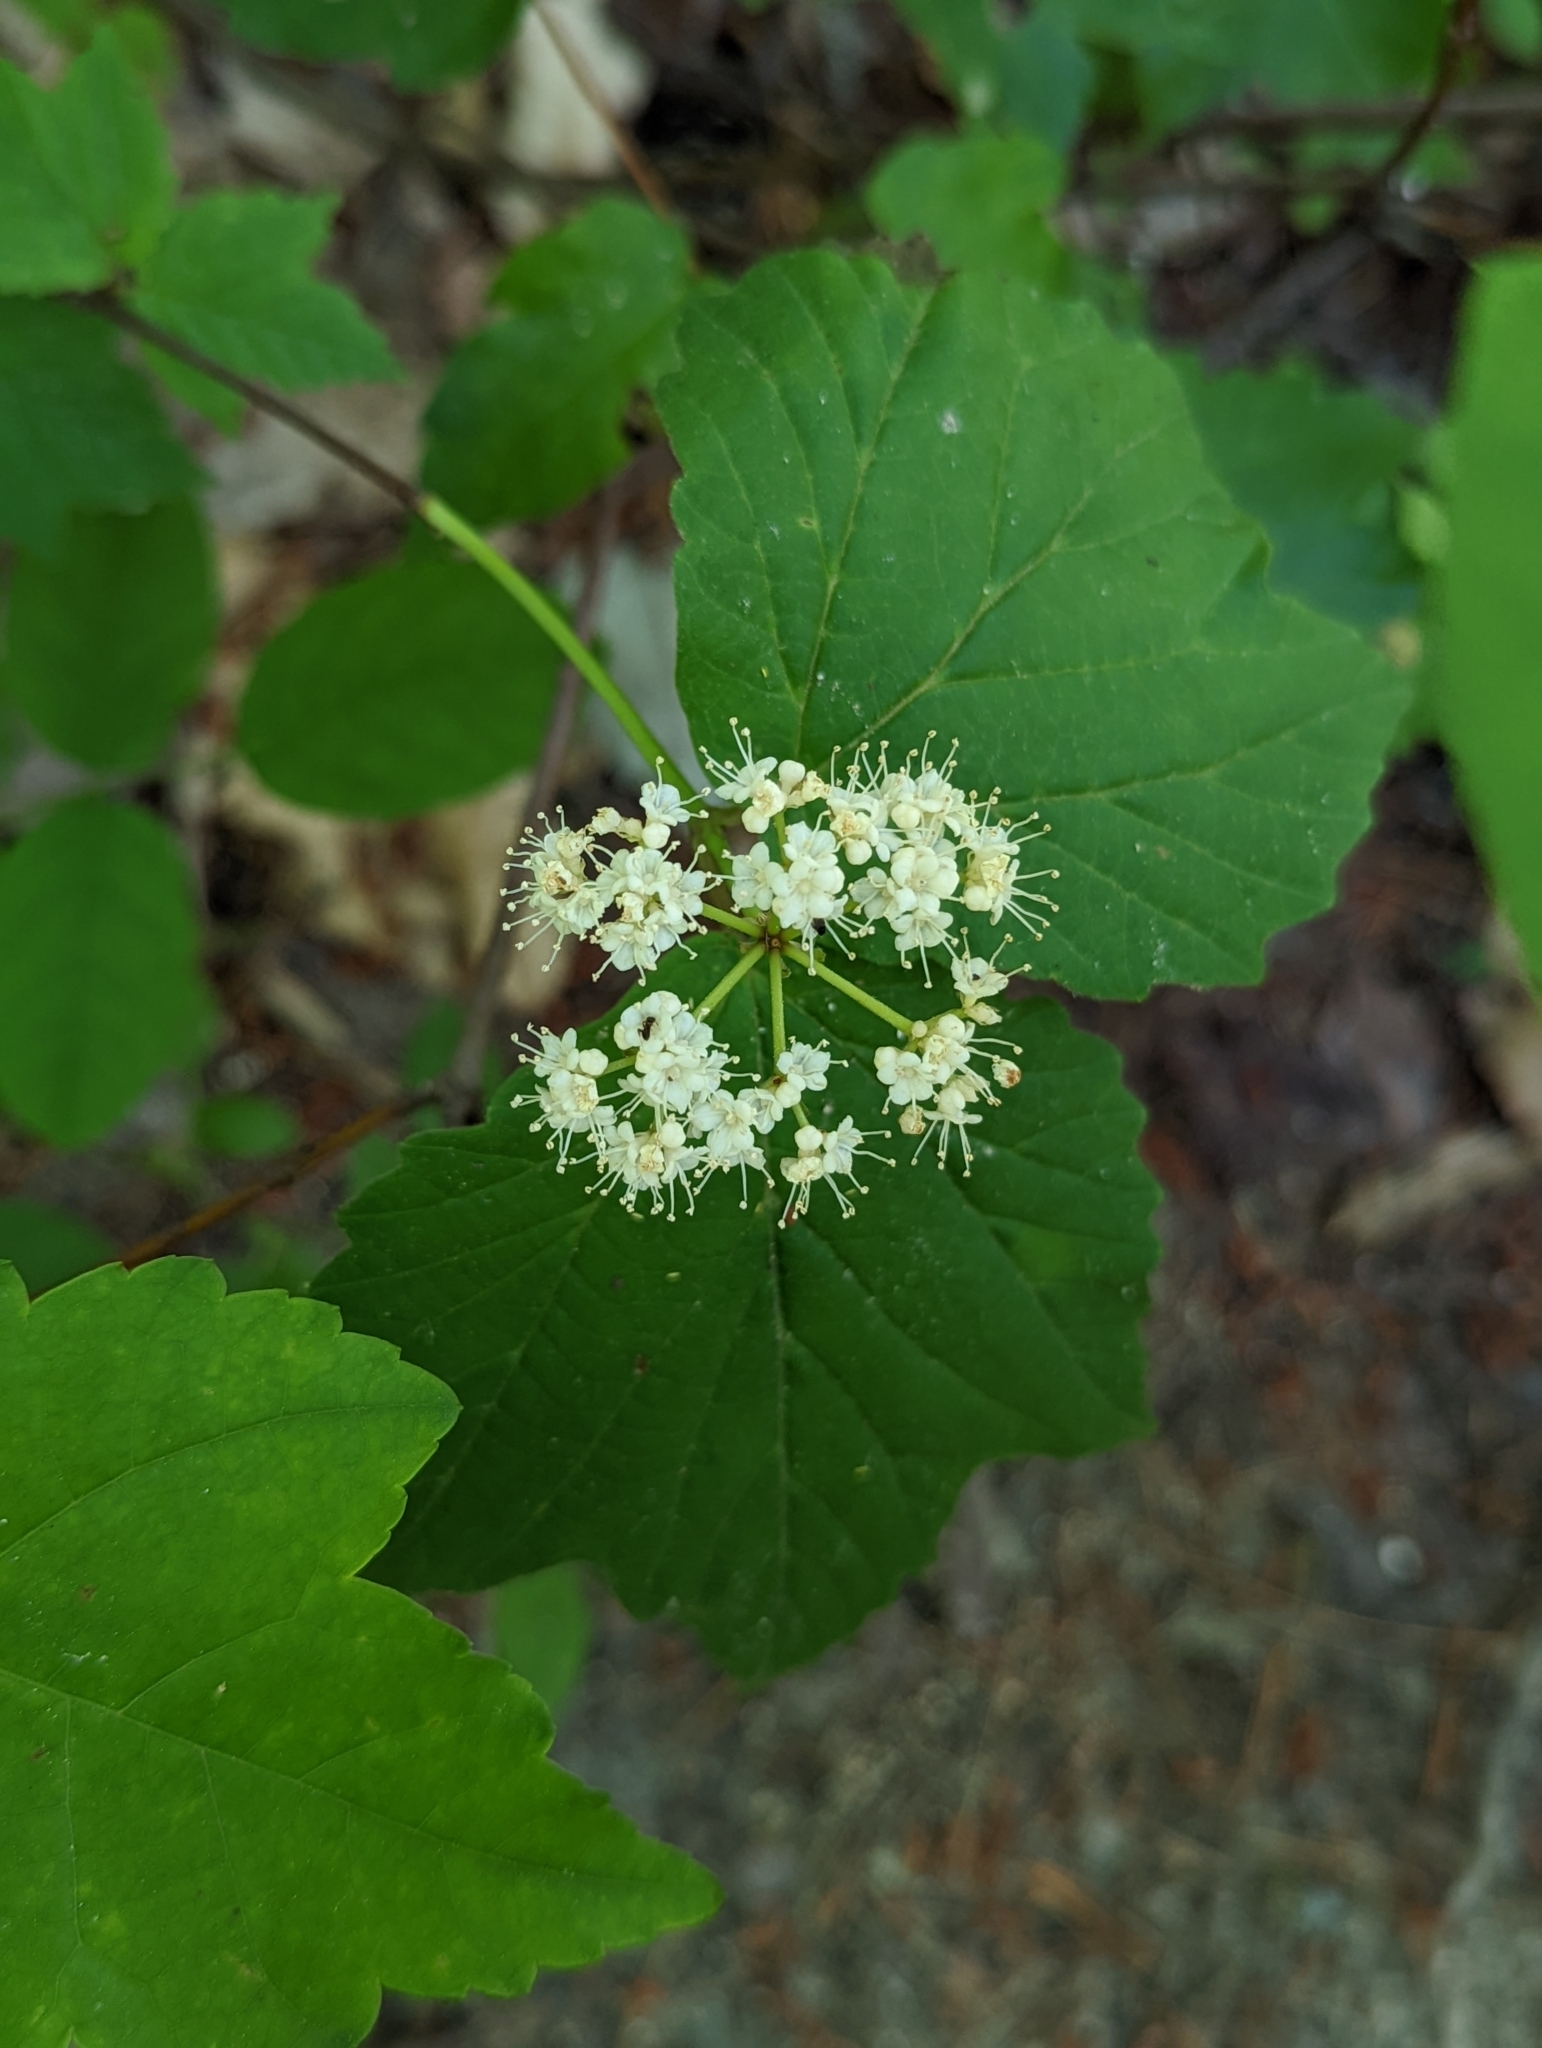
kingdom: Plantae
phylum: Tracheophyta
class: Magnoliopsida
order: Dipsacales
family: Viburnaceae
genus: Viburnum
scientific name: Viburnum acerifolium
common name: Dockmackie
